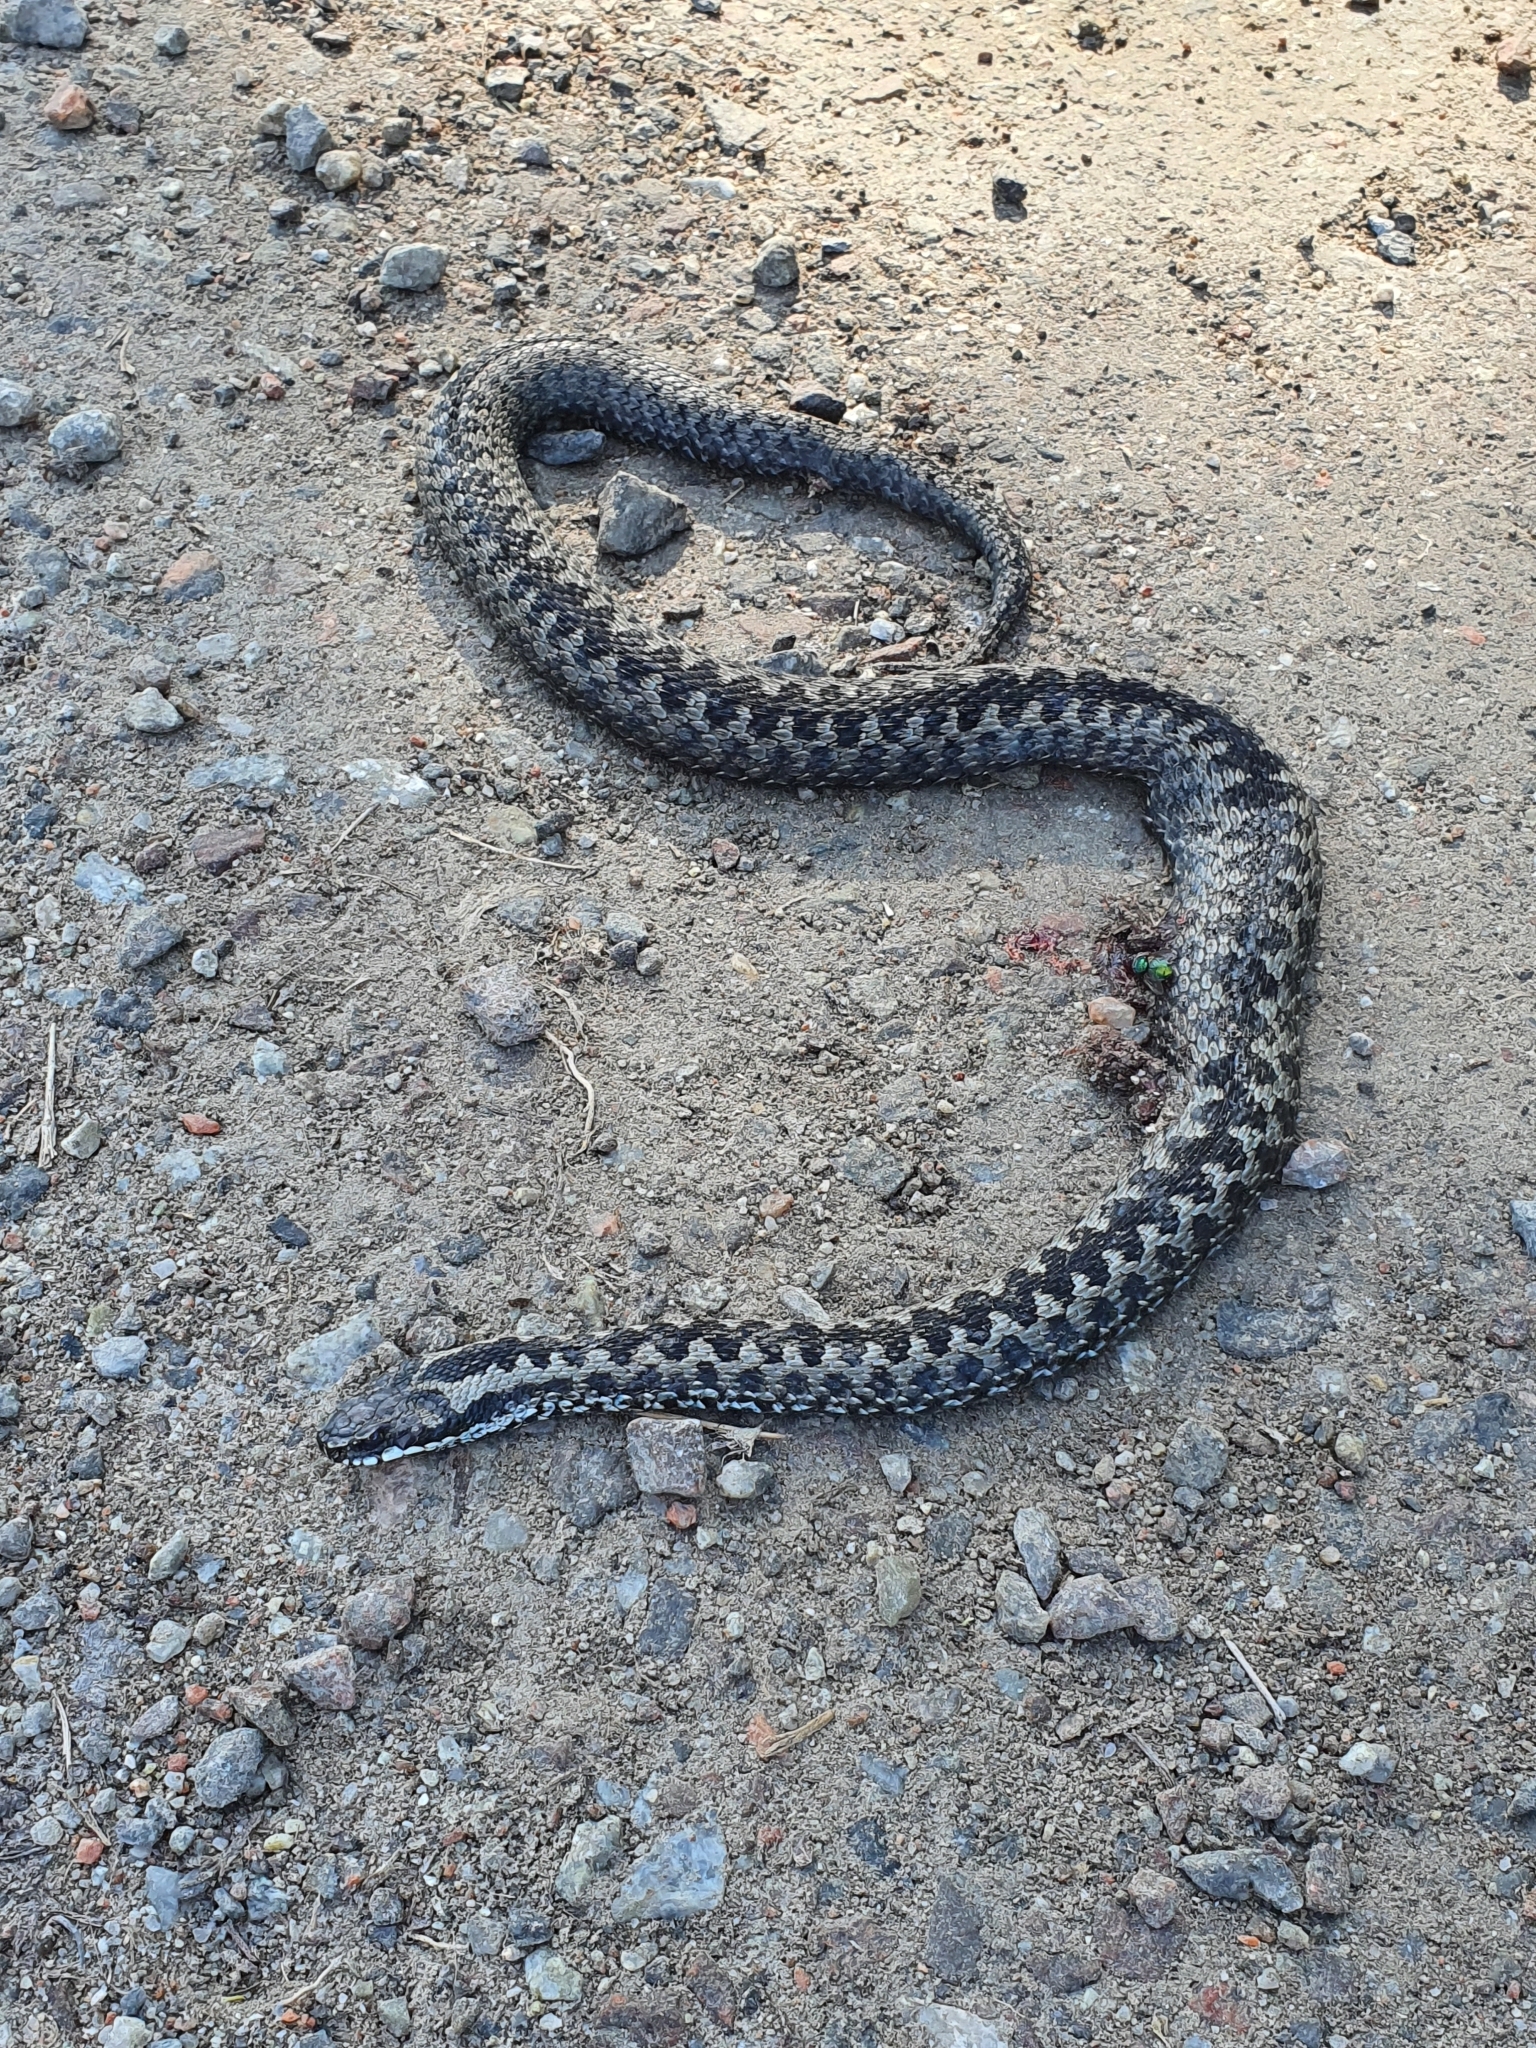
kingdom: Animalia
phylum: Chordata
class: Squamata
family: Viperidae
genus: Vipera
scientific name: Vipera berus
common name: Adder
